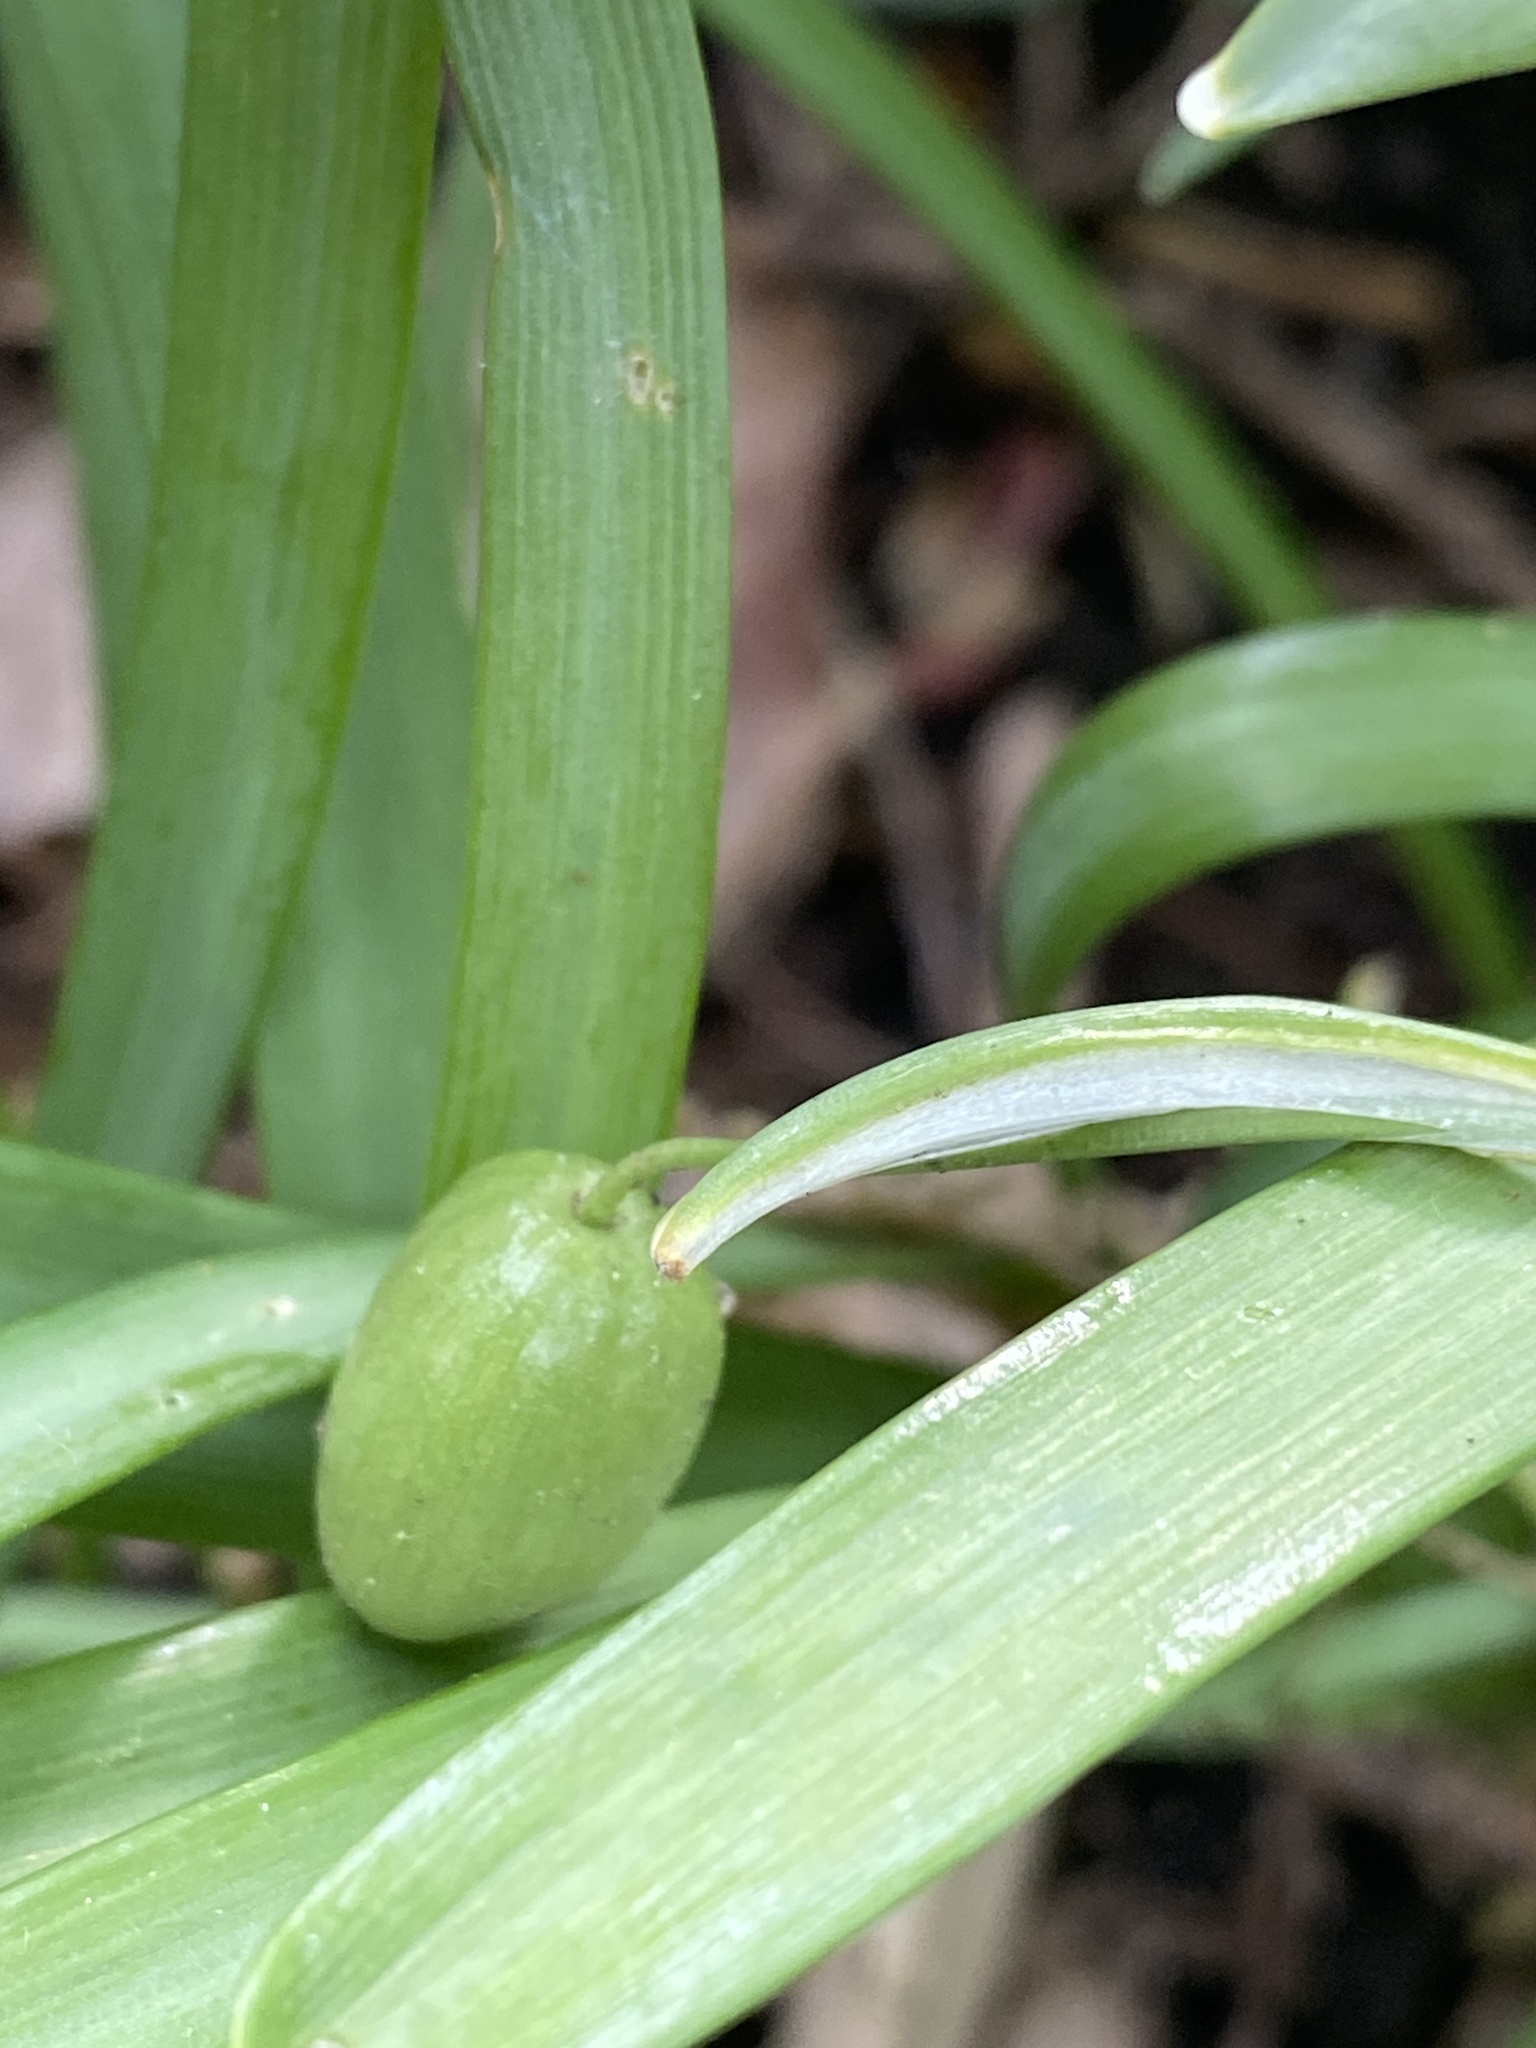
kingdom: Plantae
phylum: Tracheophyta
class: Liliopsida
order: Asparagales
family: Amaryllidaceae
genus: Galanthus
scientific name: Galanthus nivalis
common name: Snowdrop
